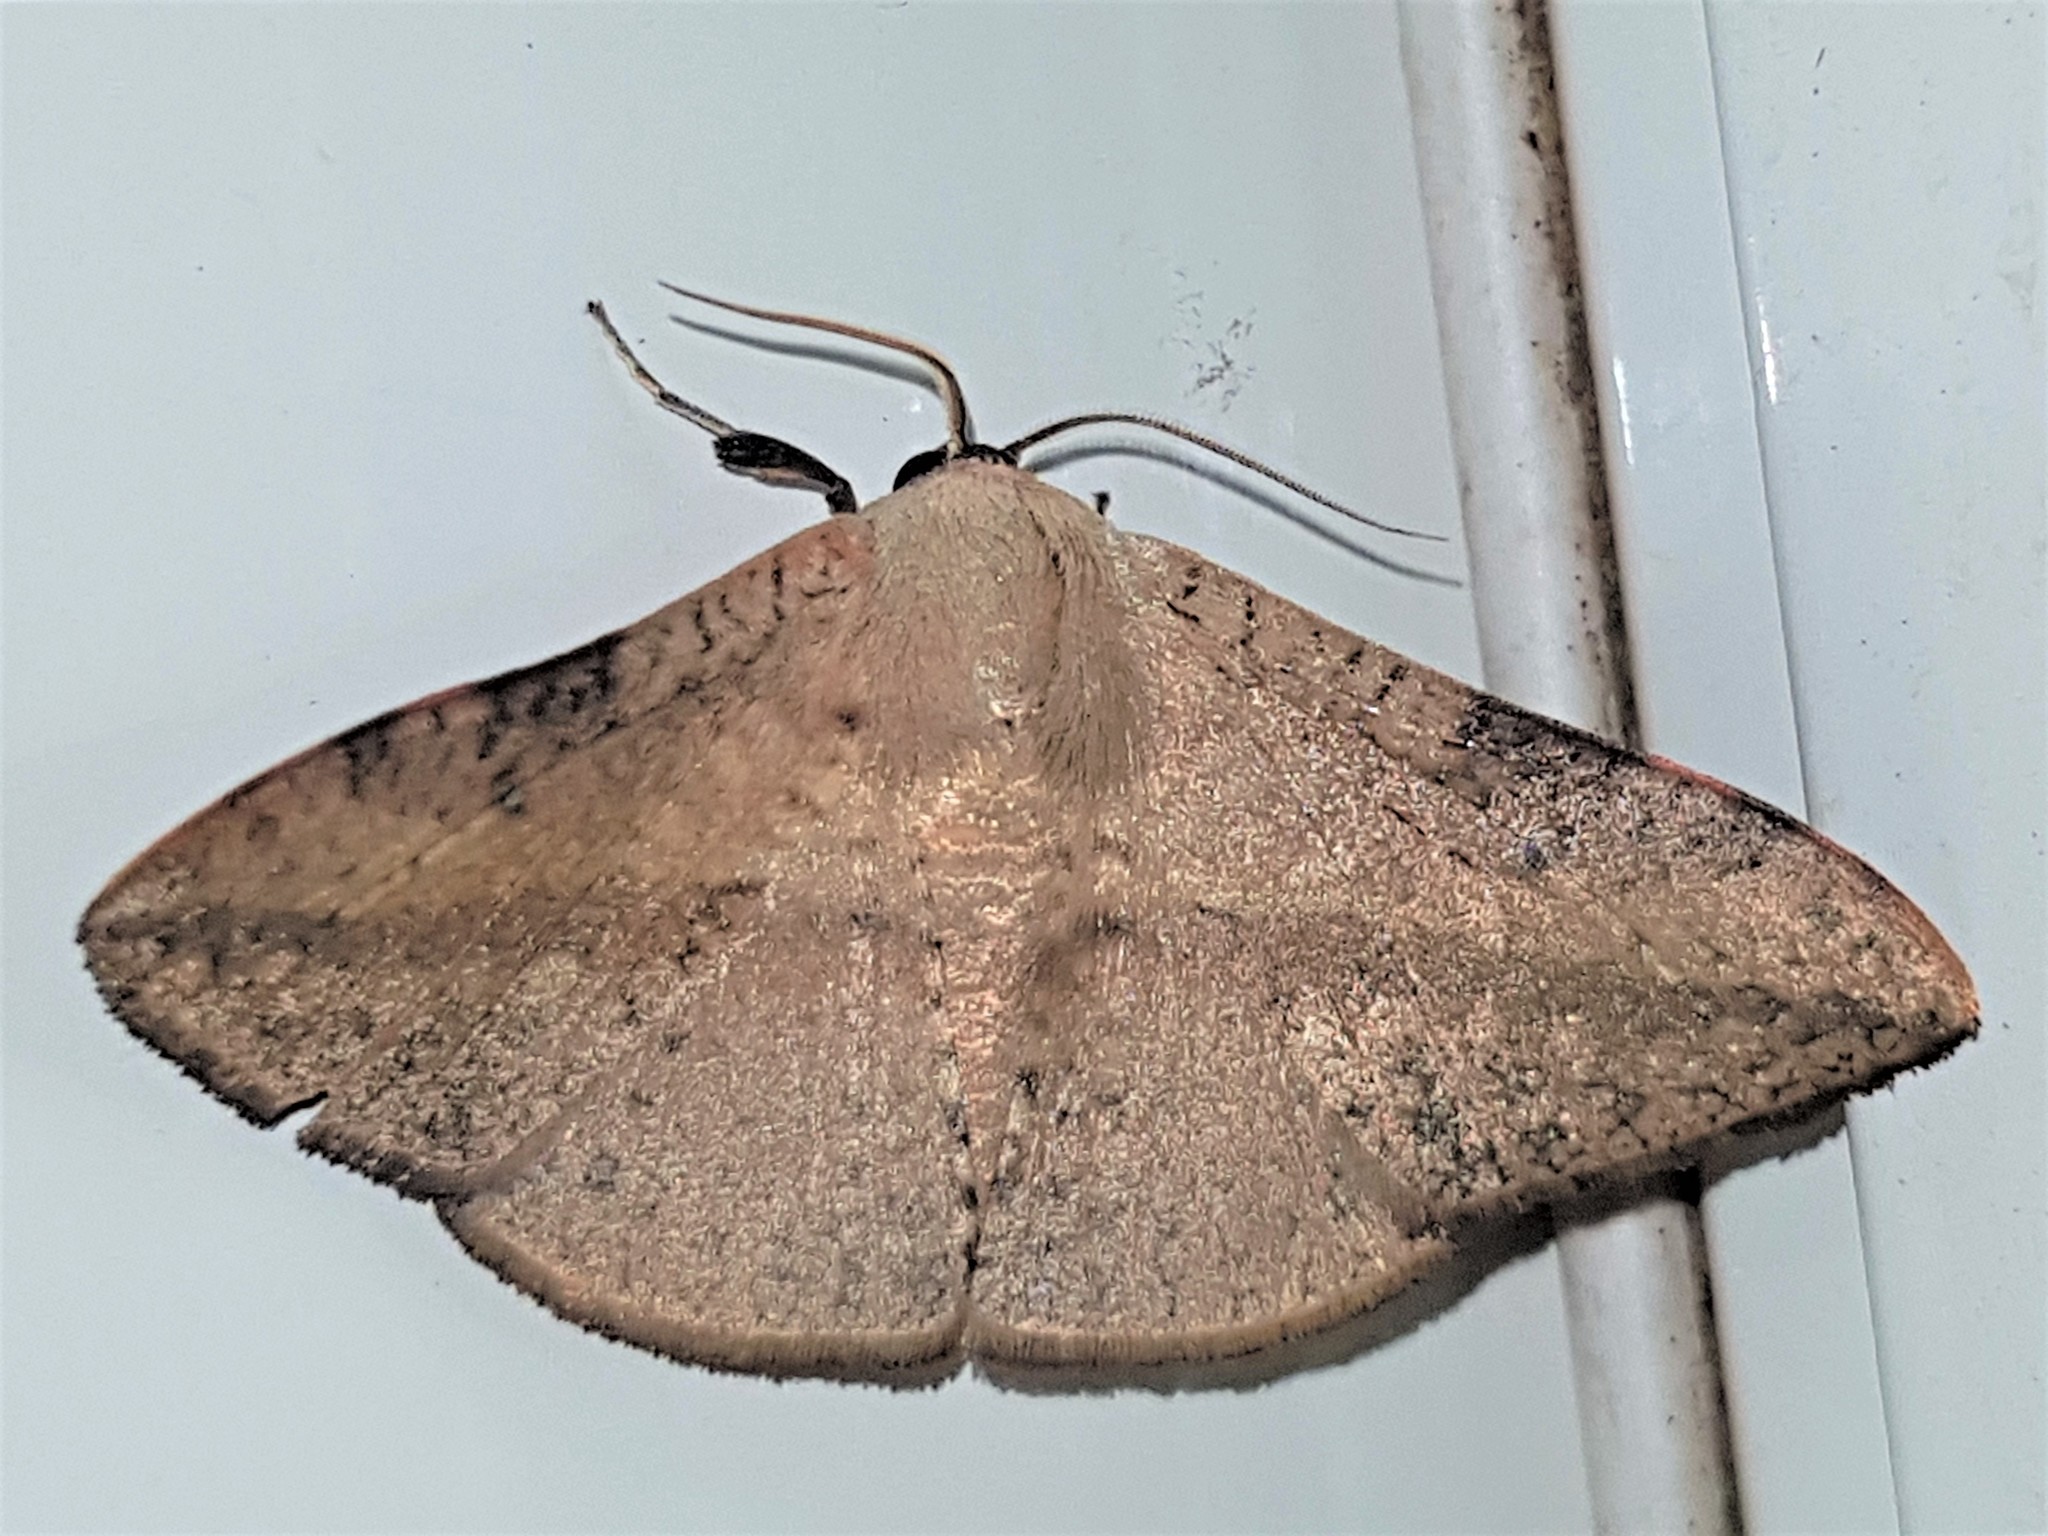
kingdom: Animalia
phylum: Arthropoda
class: Insecta
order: Lepidoptera
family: Thyrididae
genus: Tanyodes
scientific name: Tanyodes rufitibia
